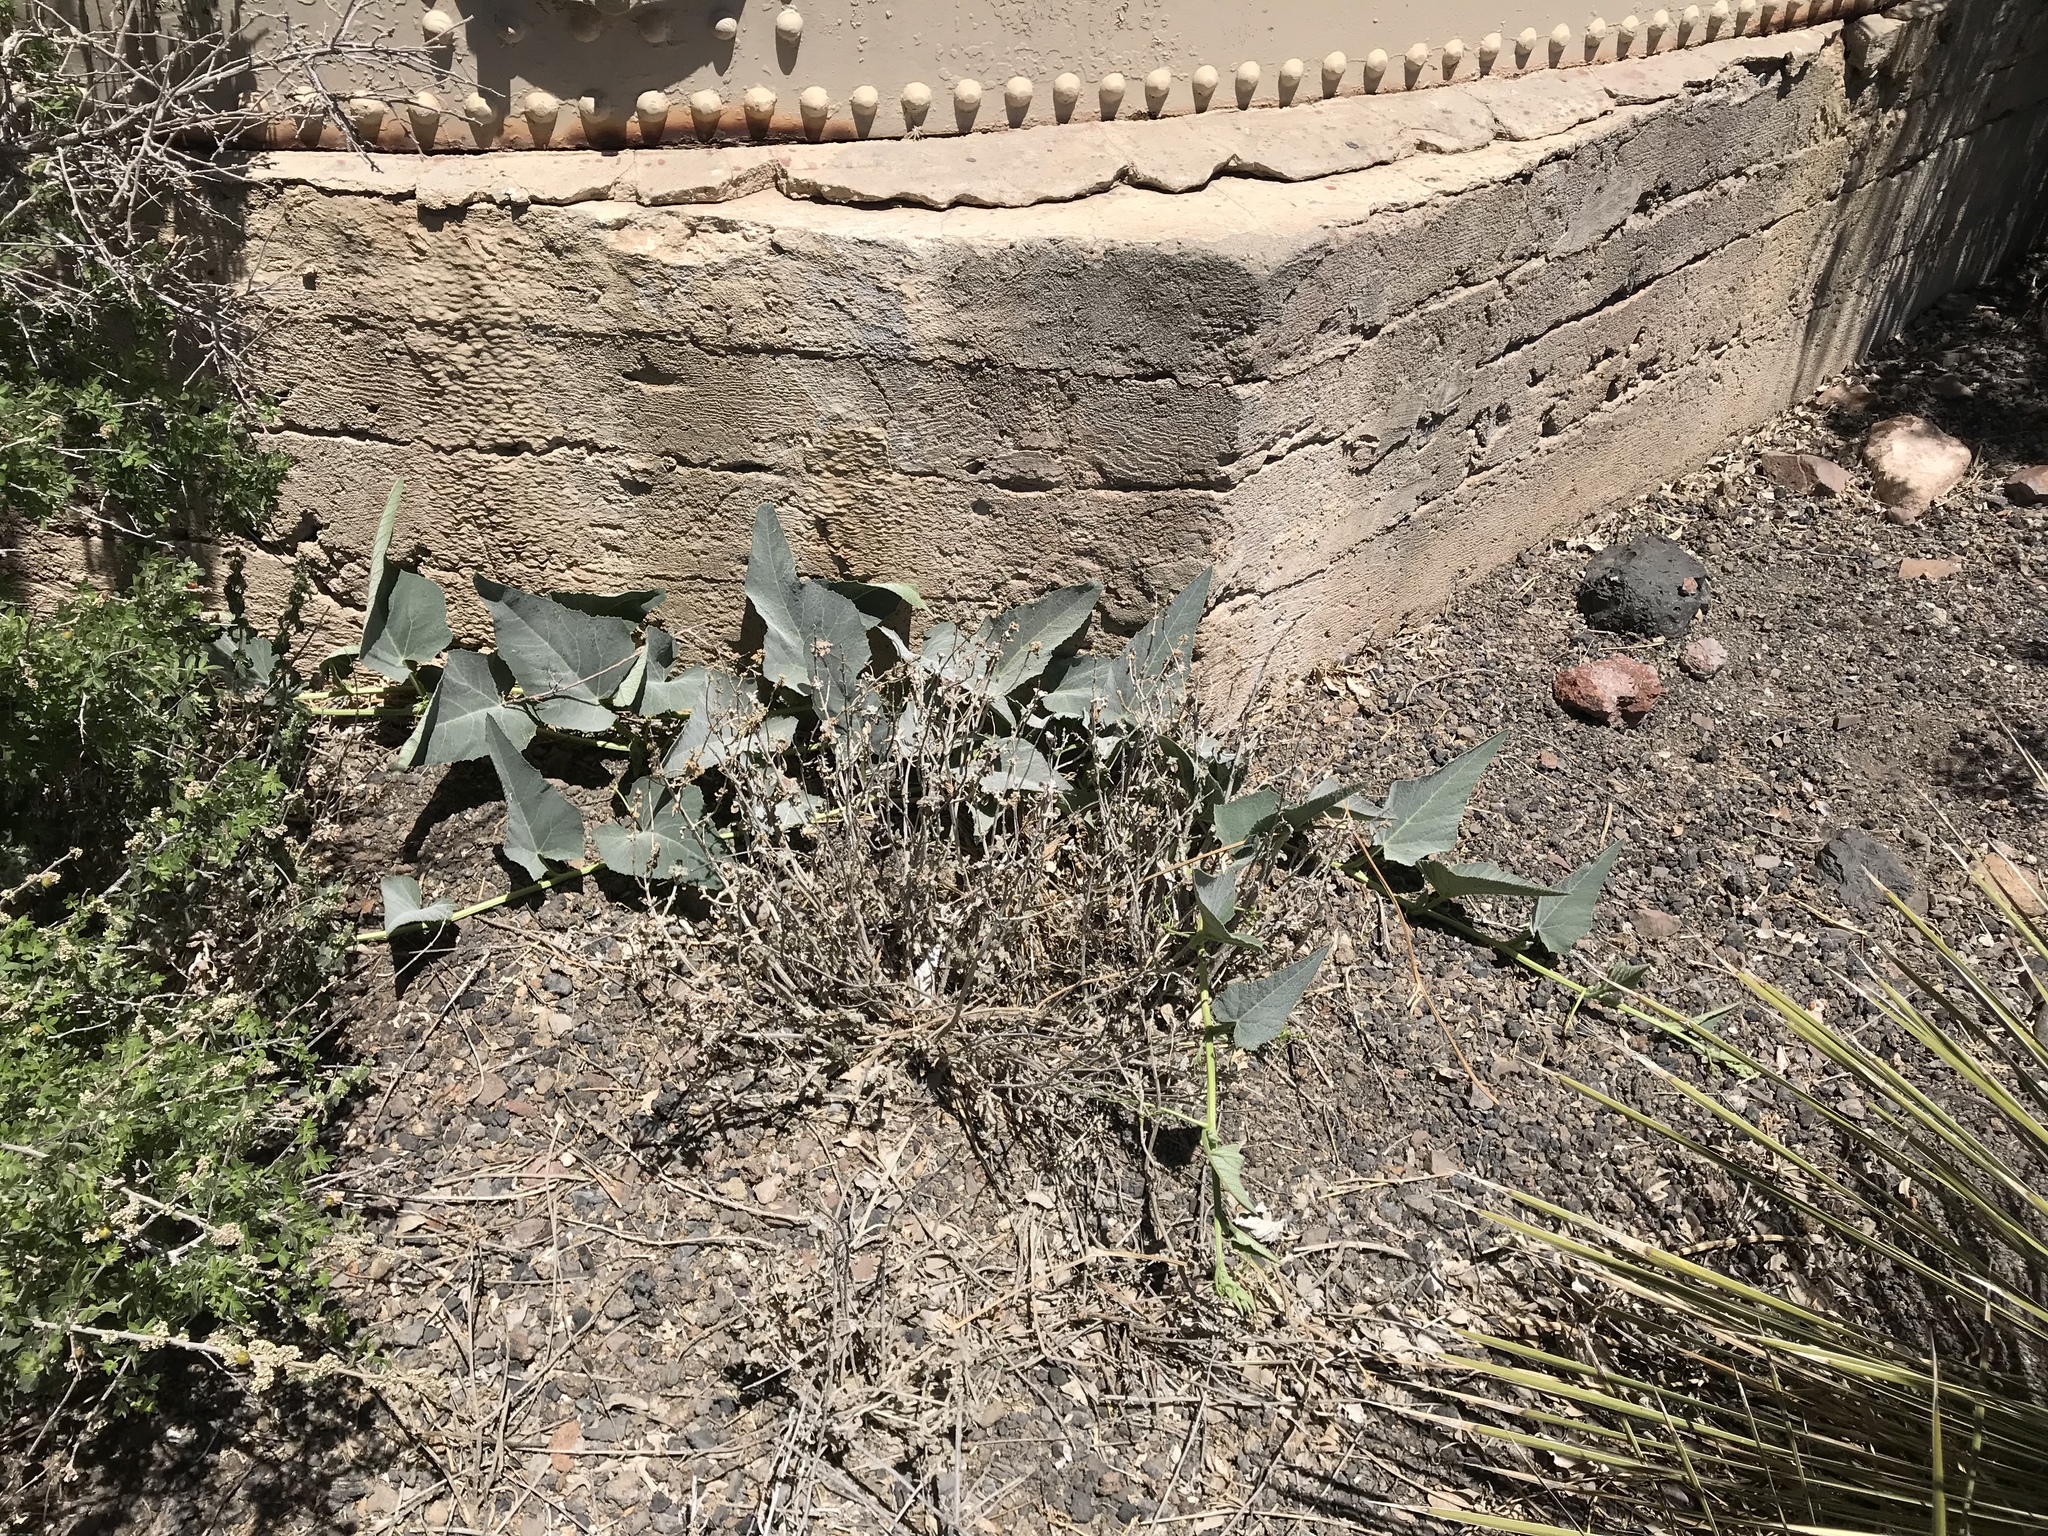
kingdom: Plantae
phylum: Tracheophyta
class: Magnoliopsida
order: Cucurbitales
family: Cucurbitaceae
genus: Cucurbita
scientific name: Cucurbita foetidissima
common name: Buffalo gourd
